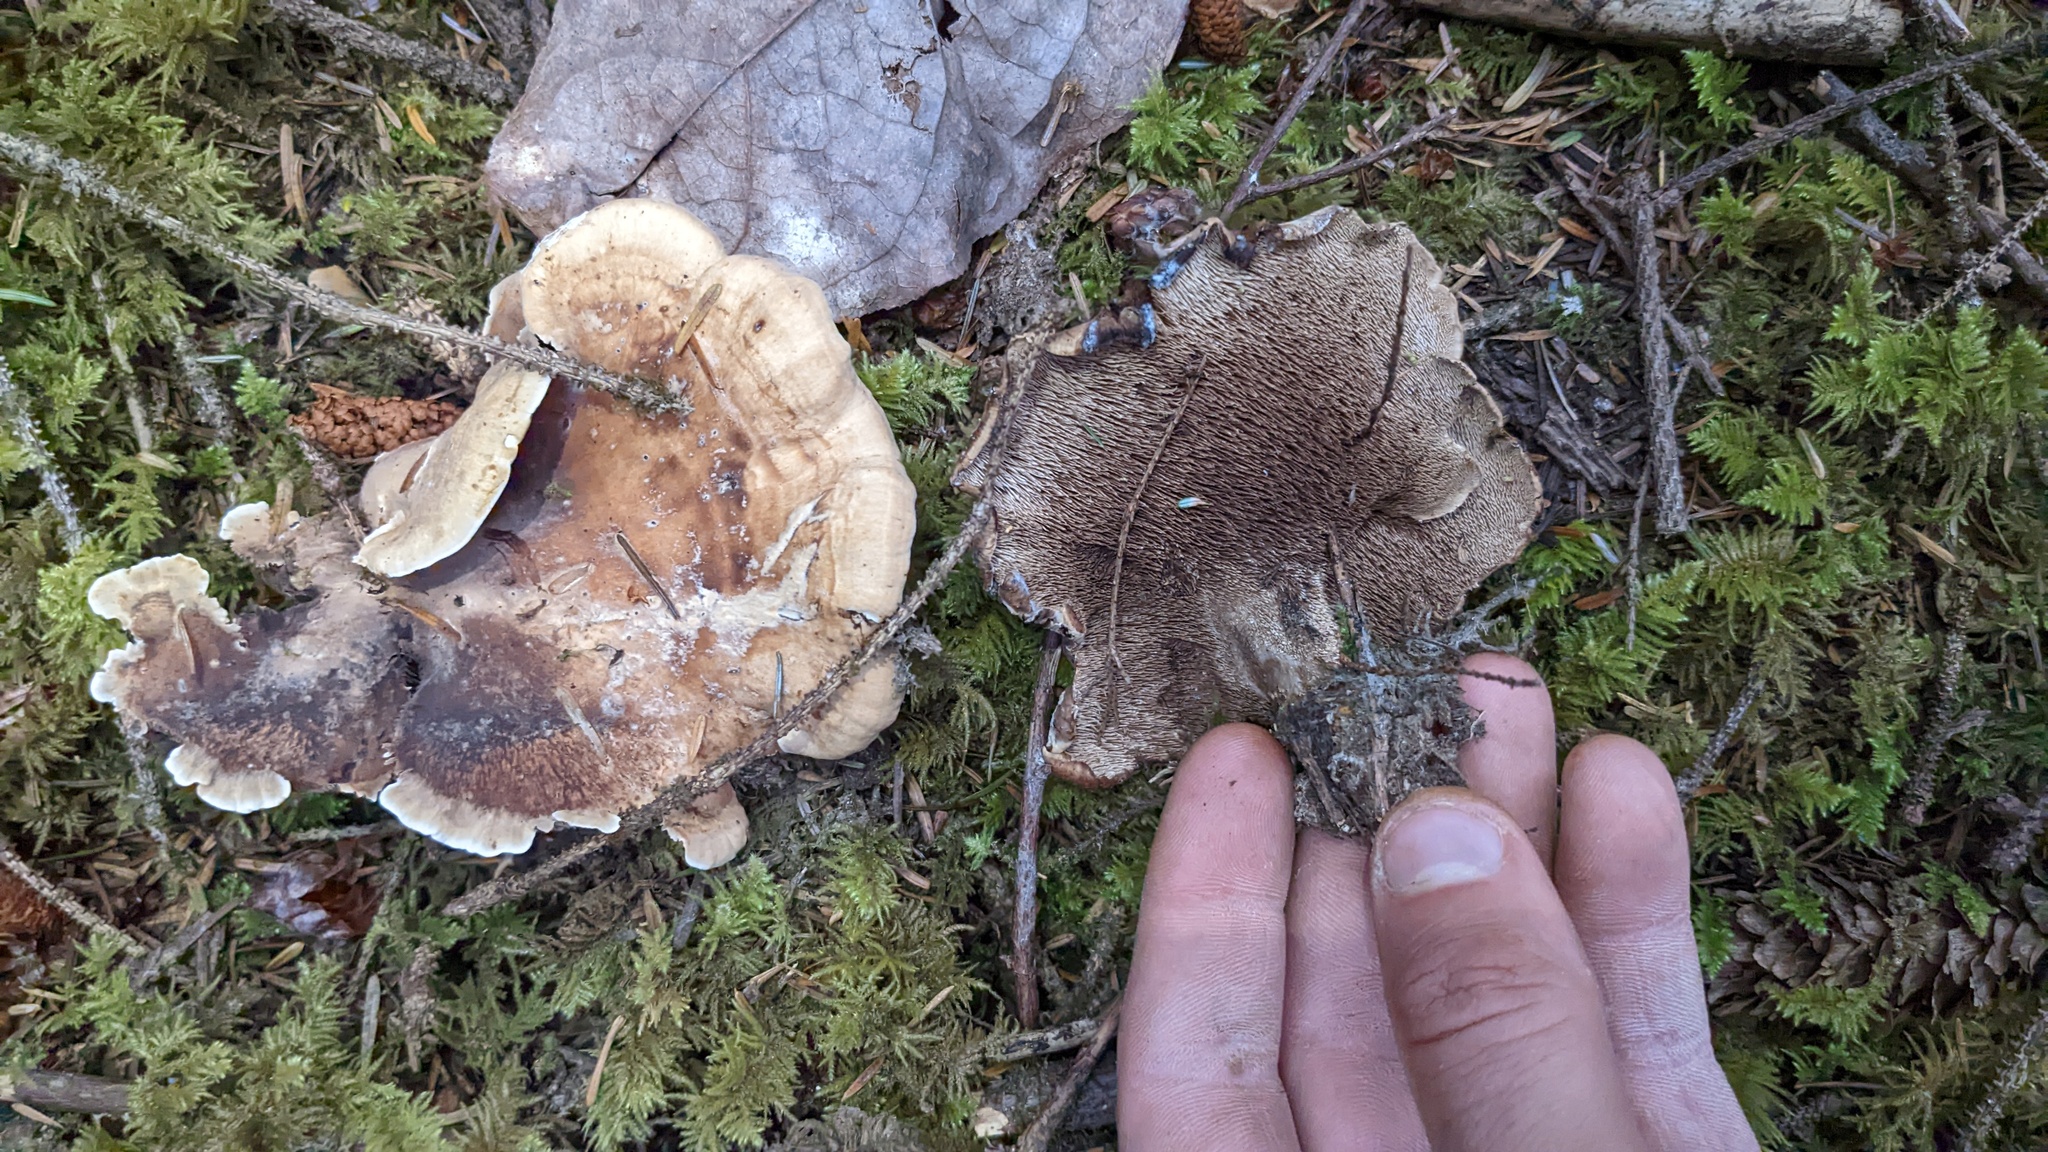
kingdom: Fungi
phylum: Basidiomycota
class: Agaricomycetes
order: Thelephorales
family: Bankeraceae
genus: Sarcodon
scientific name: Sarcodon stereosarcinon
